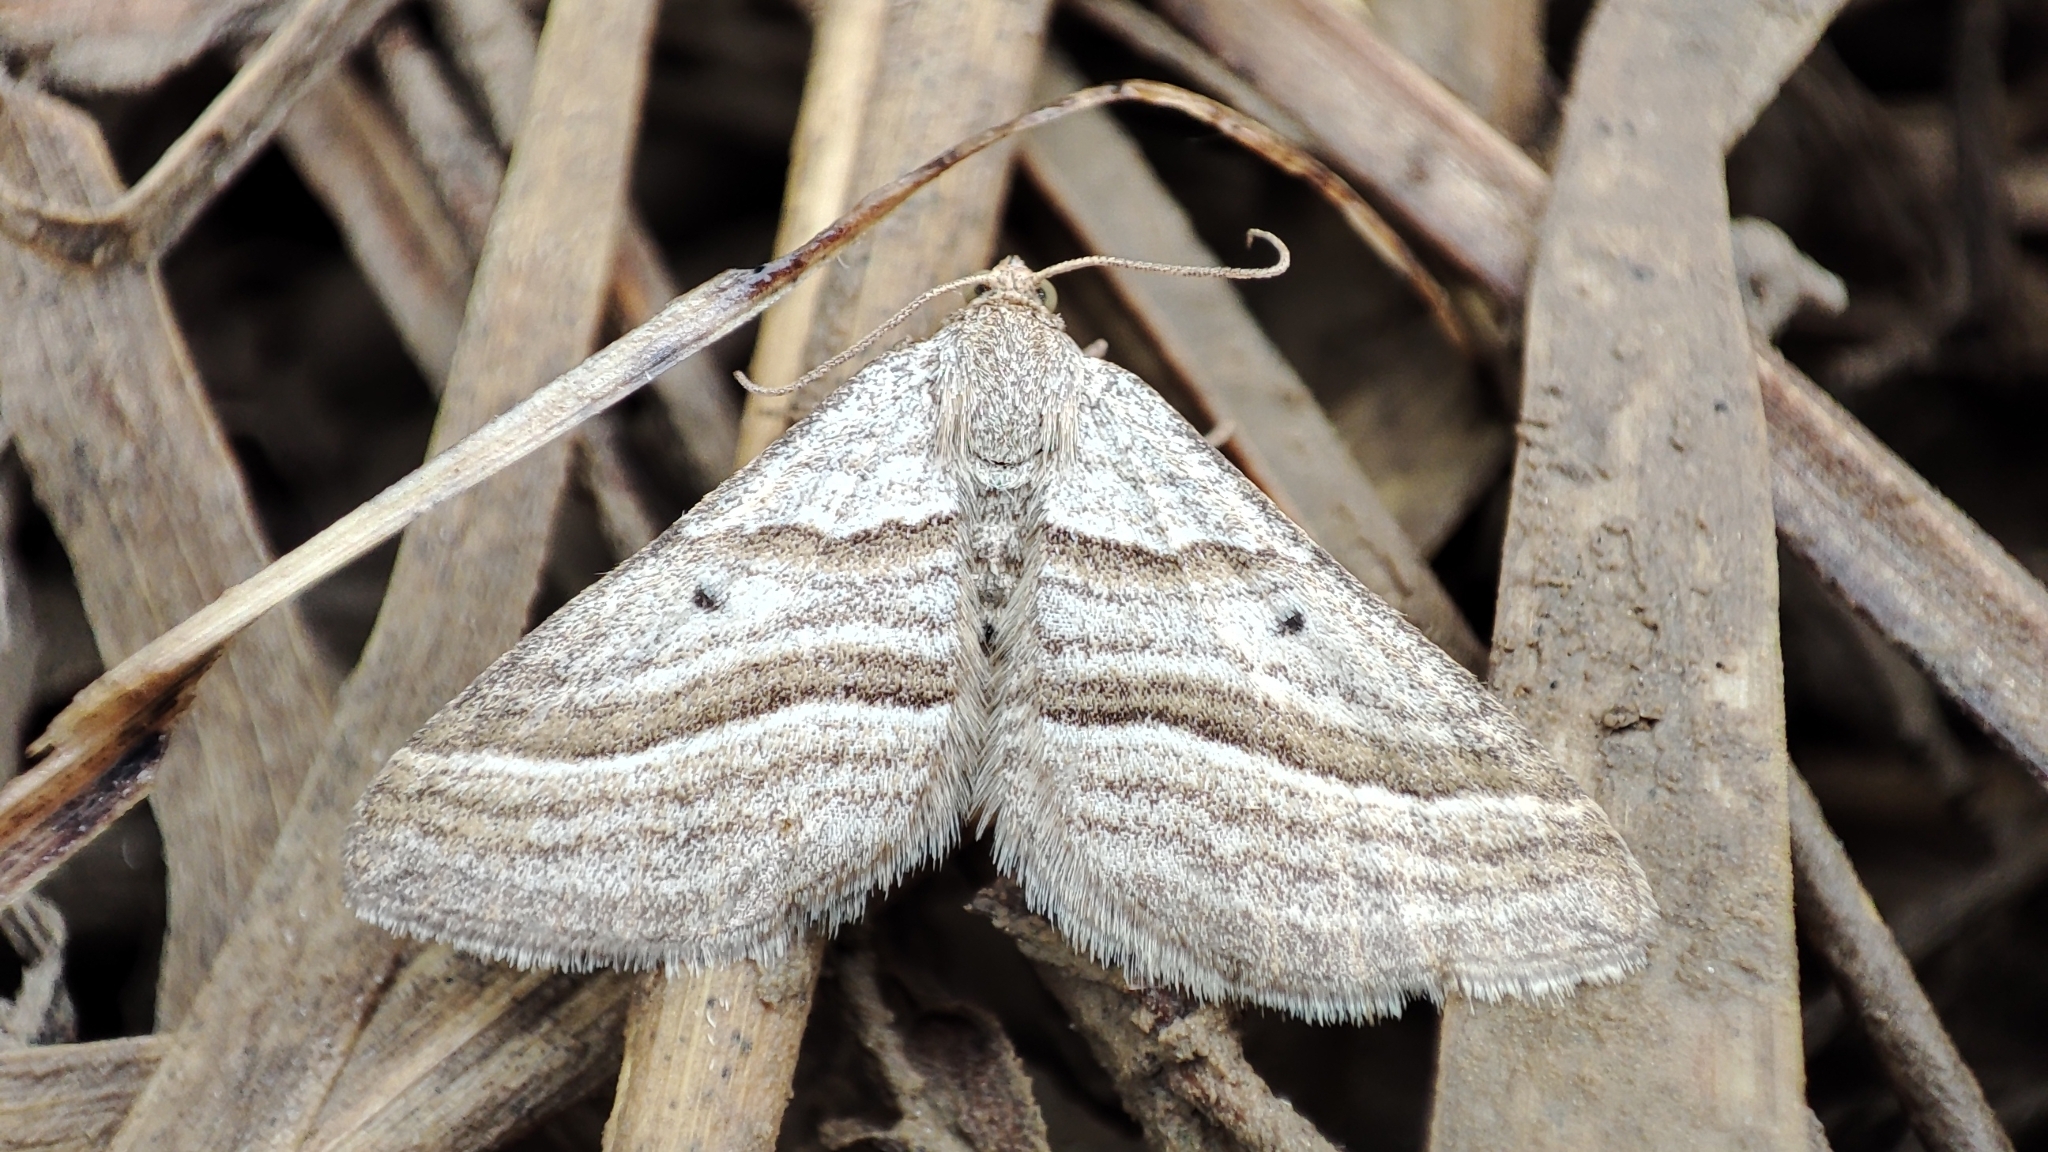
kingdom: Animalia
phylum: Arthropoda
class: Insecta
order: Lepidoptera
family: Geometridae
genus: Phibalapteryx
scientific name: Phibalapteryx virgata
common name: Oblique striped
